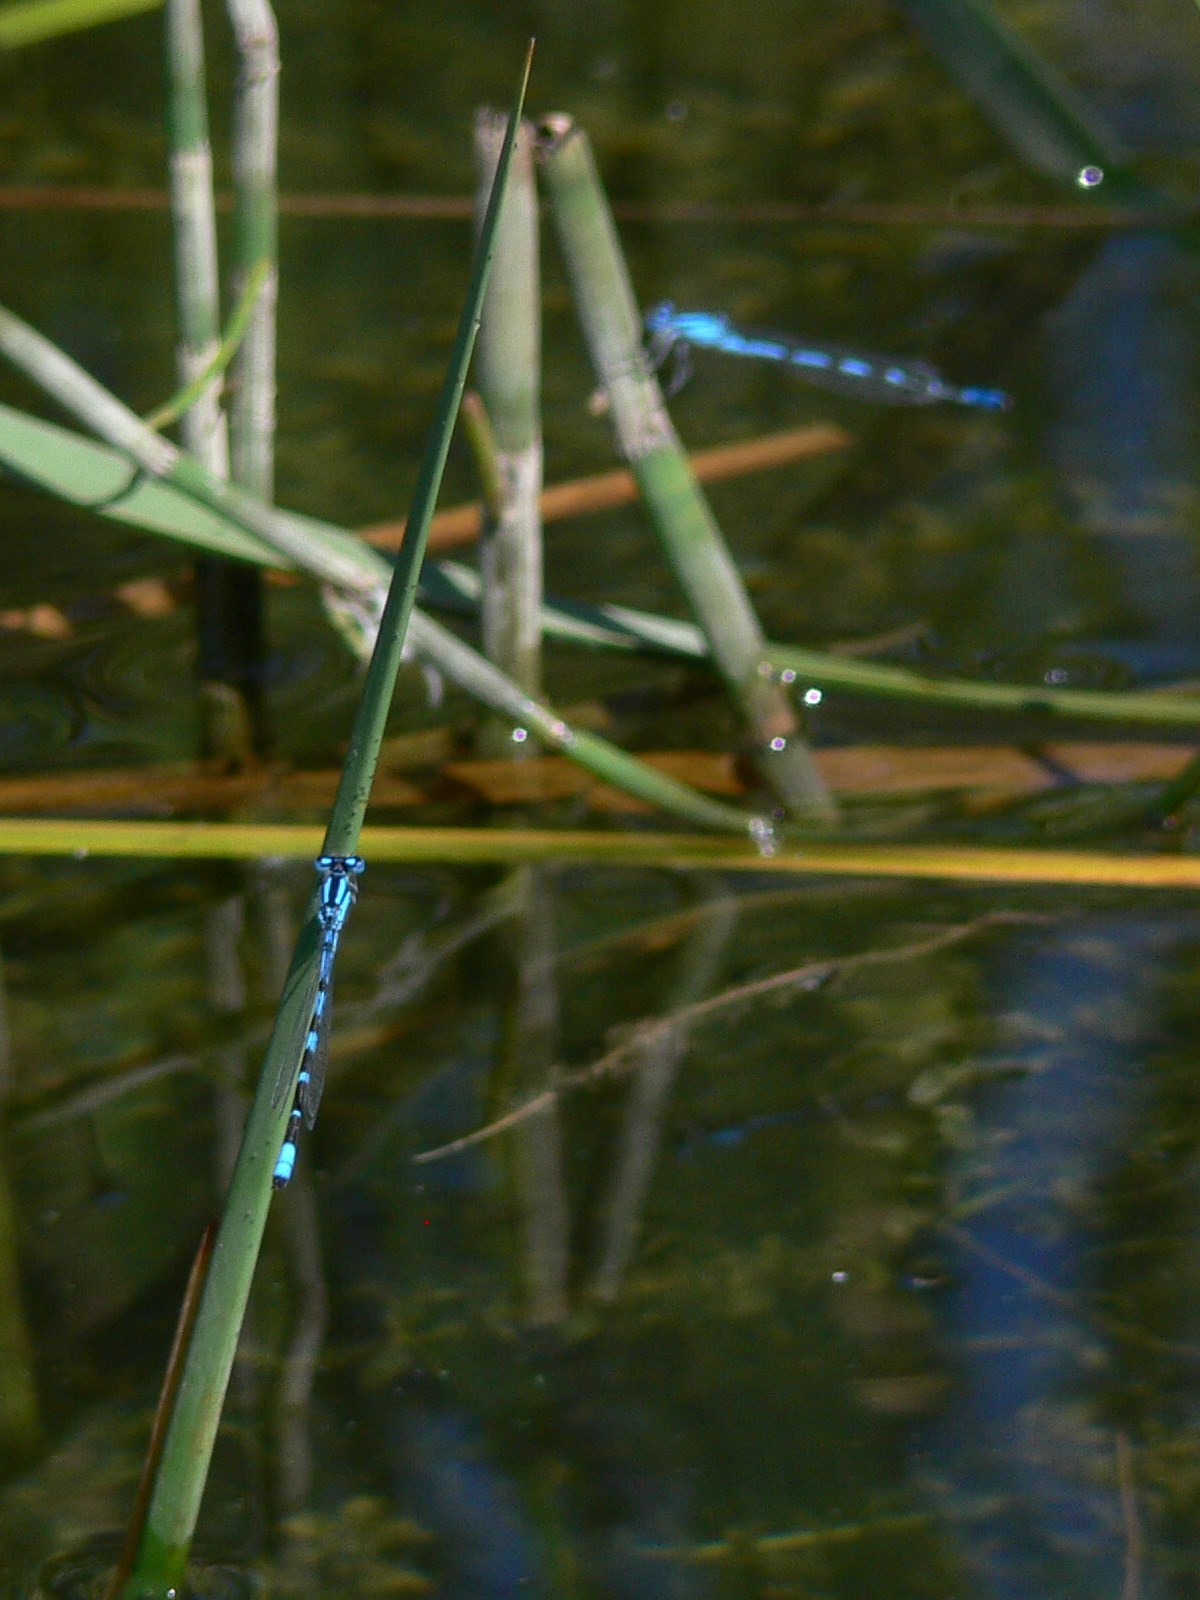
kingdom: Animalia
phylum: Arthropoda
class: Insecta
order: Odonata
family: Coenagrionidae
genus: Enallagma
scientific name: Enallagma cyathigerum
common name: Common blue damselfly
